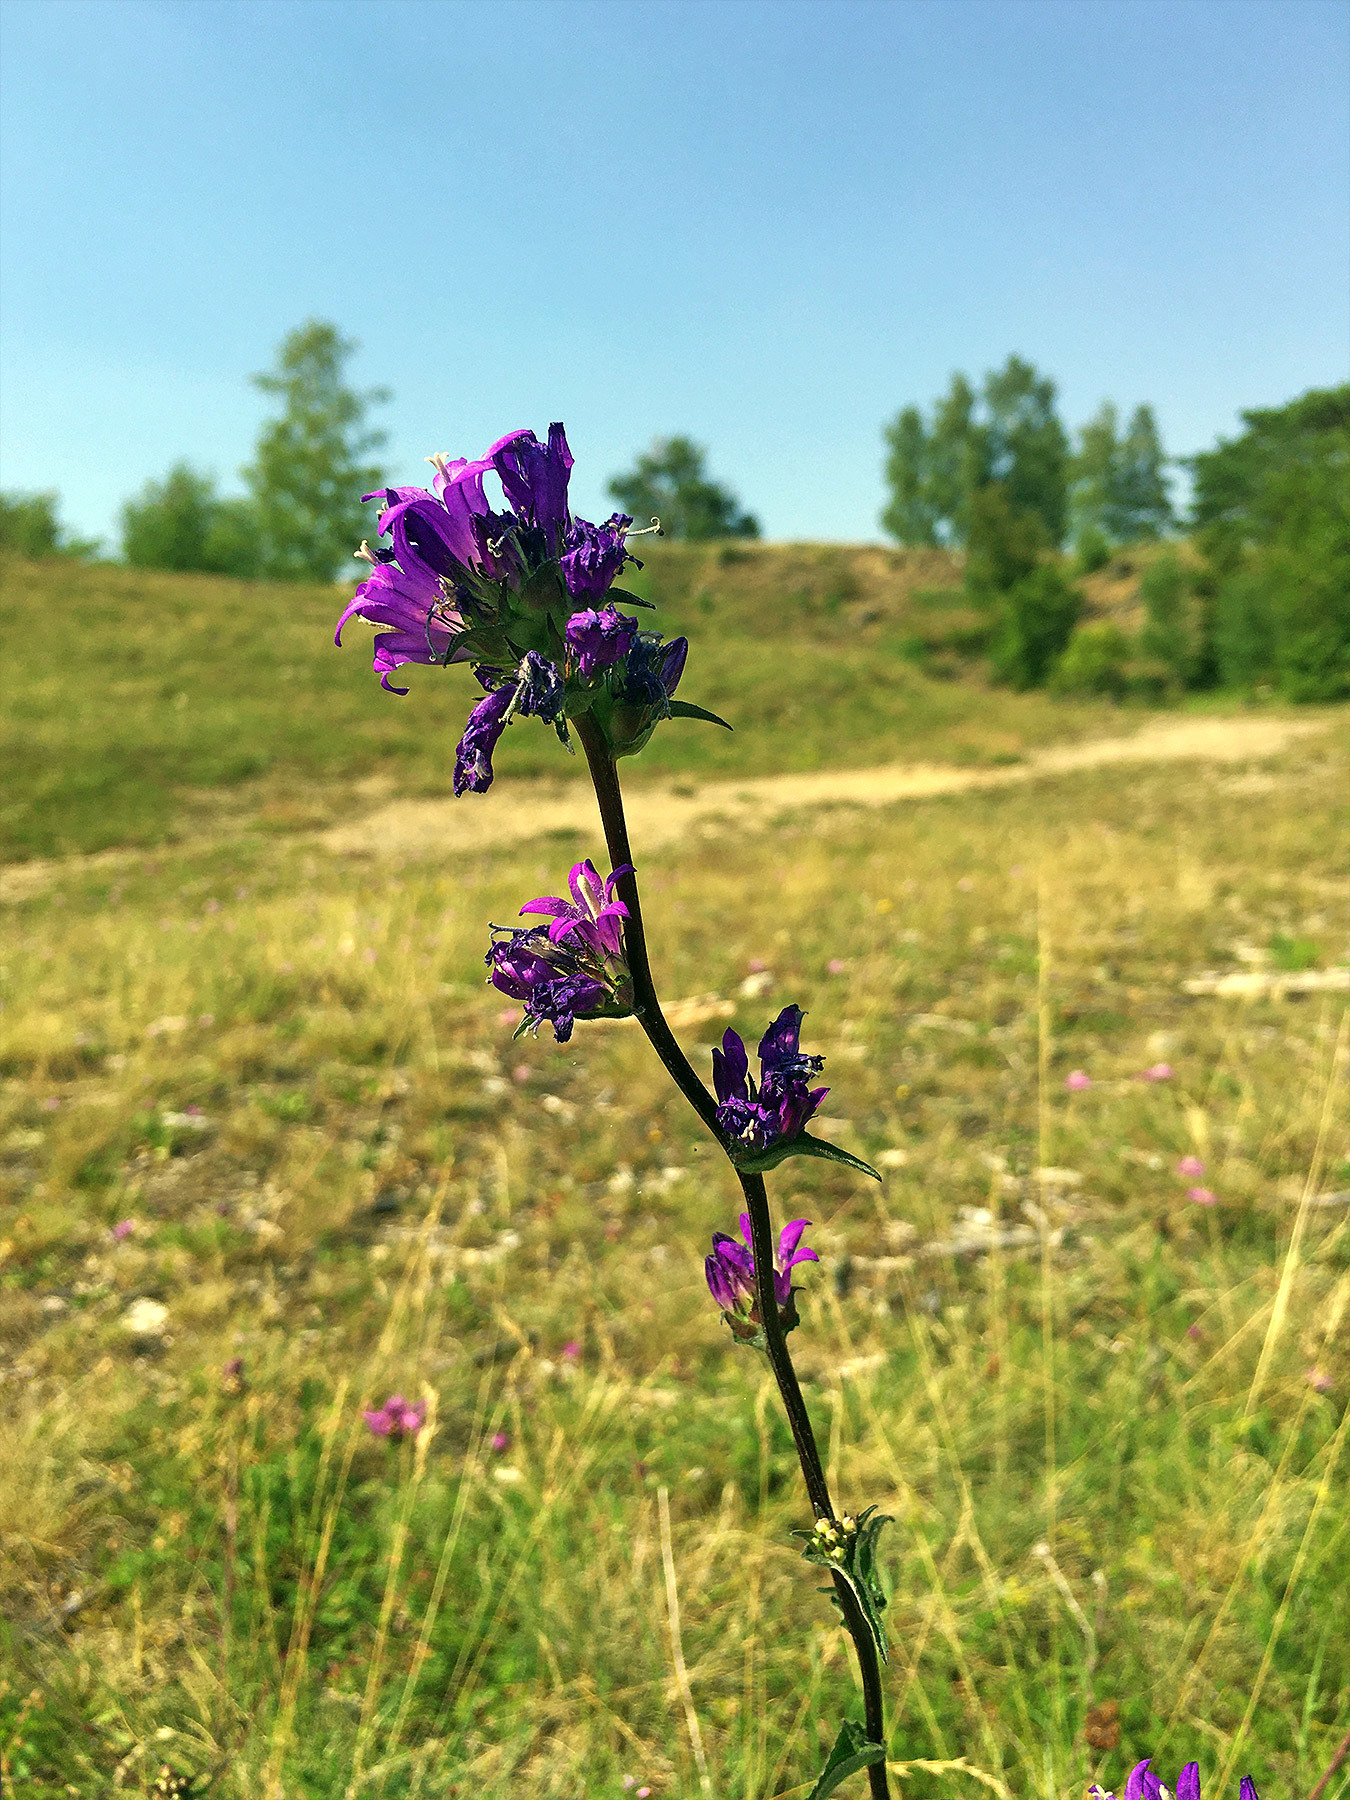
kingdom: Plantae
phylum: Tracheophyta
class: Magnoliopsida
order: Asterales
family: Campanulaceae
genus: Campanula
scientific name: Campanula glomerata
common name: Clustered bellflower
